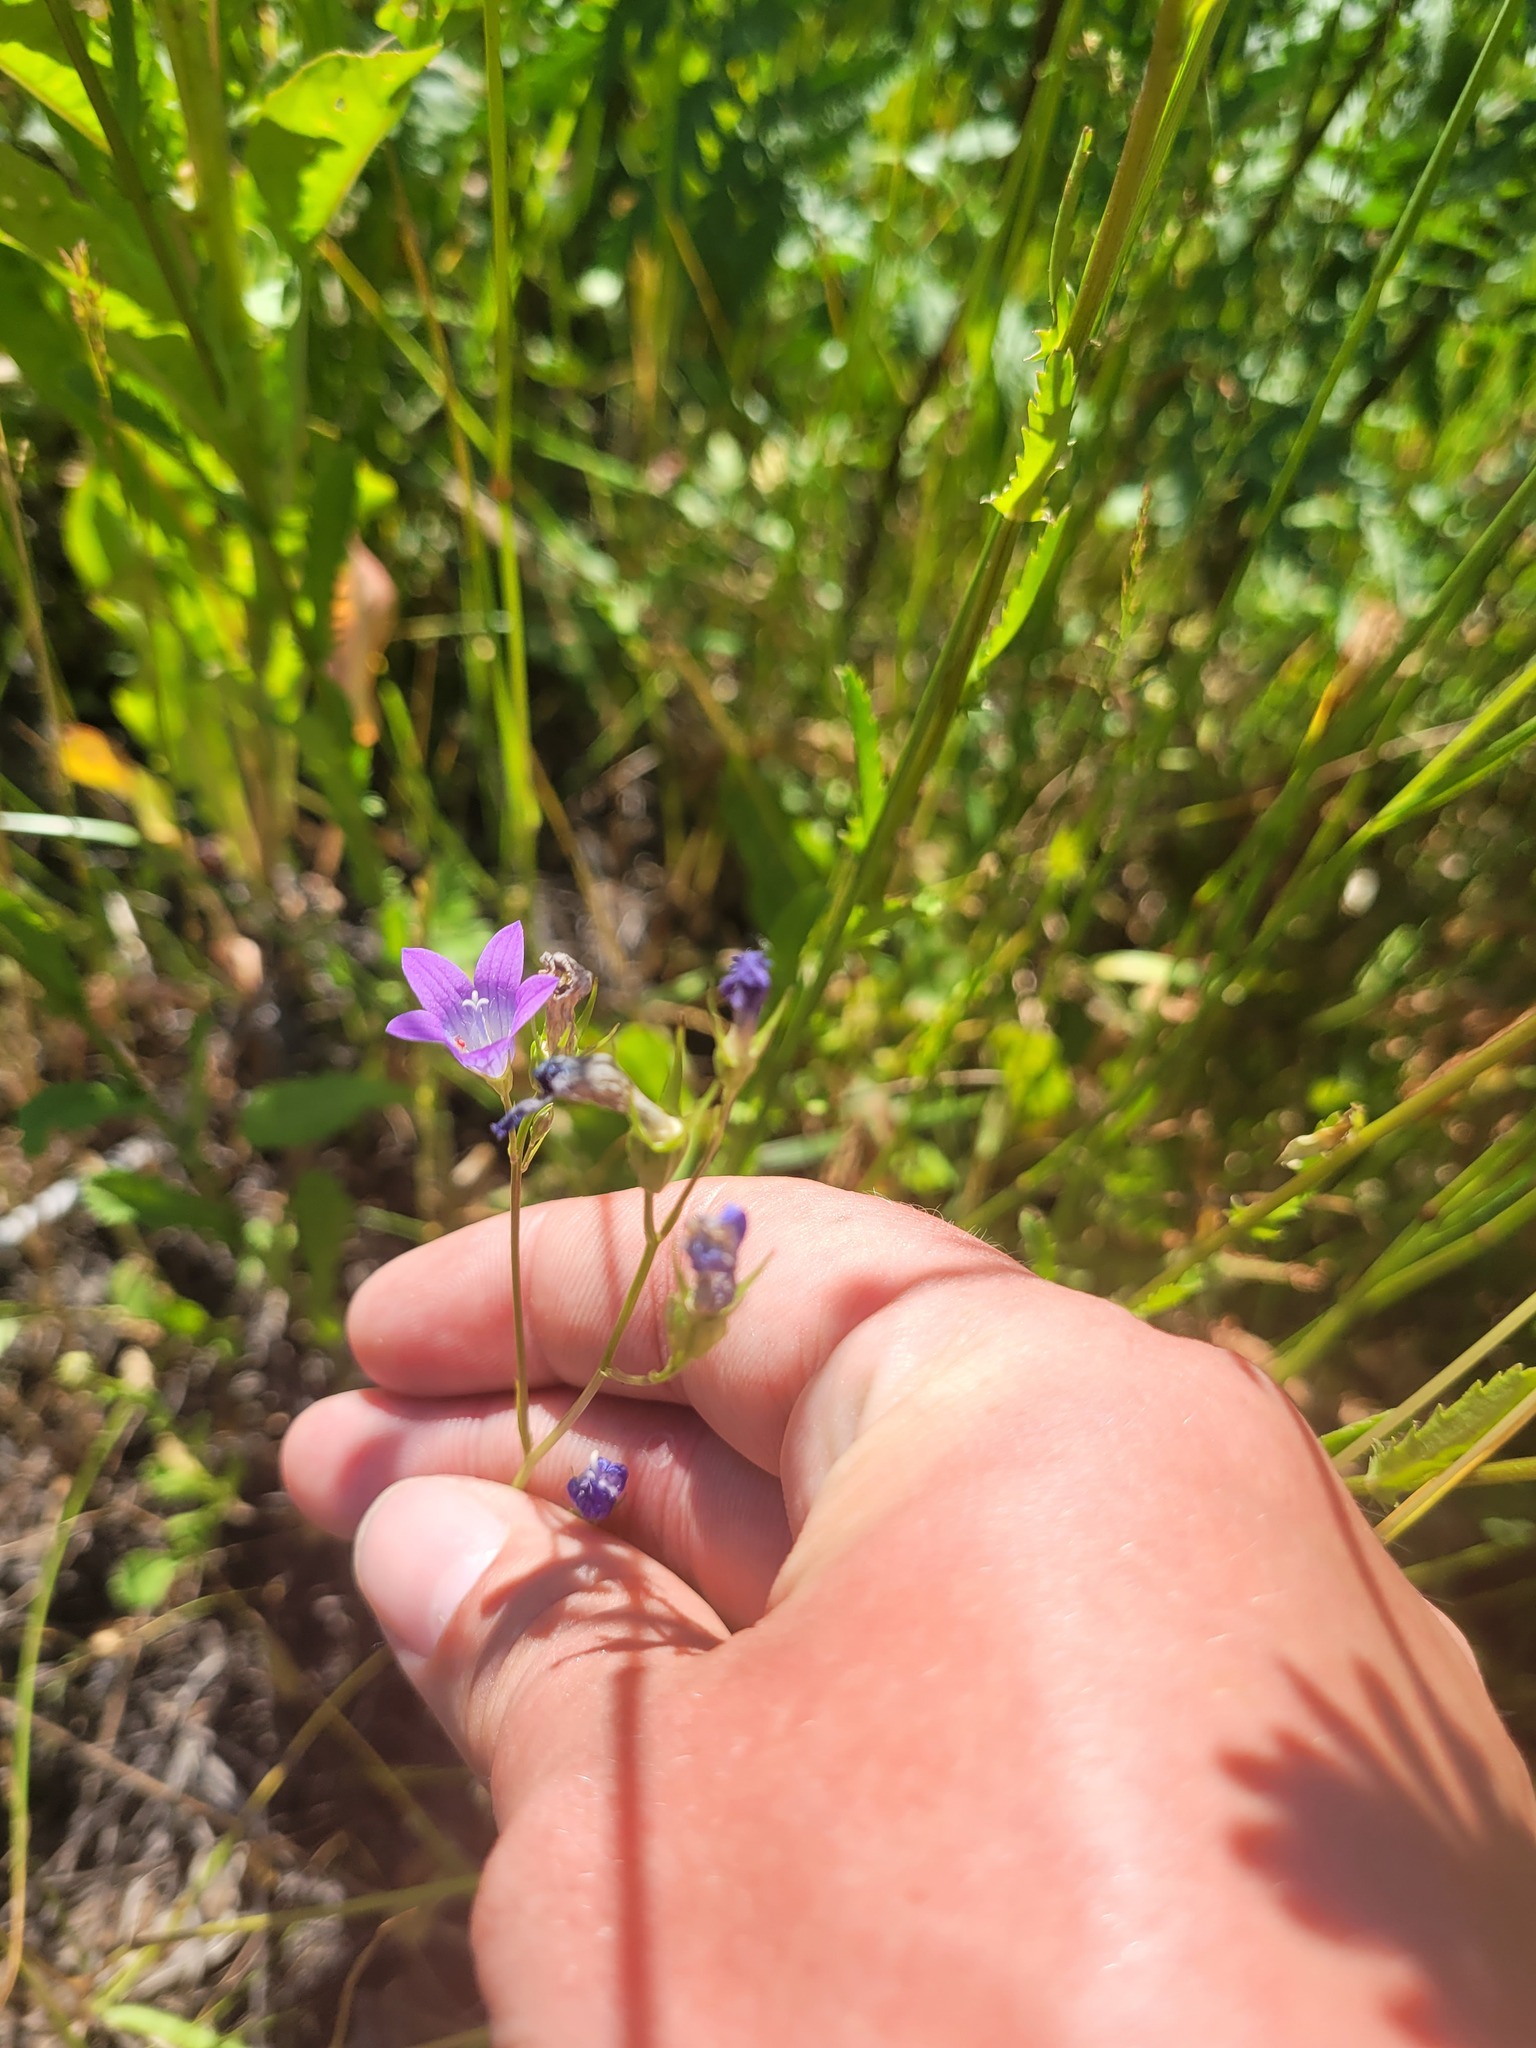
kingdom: Plantae
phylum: Tracheophyta
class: Magnoliopsida
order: Asterales
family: Campanulaceae
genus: Campanula
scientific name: Campanula patula
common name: Spreading bellflower
